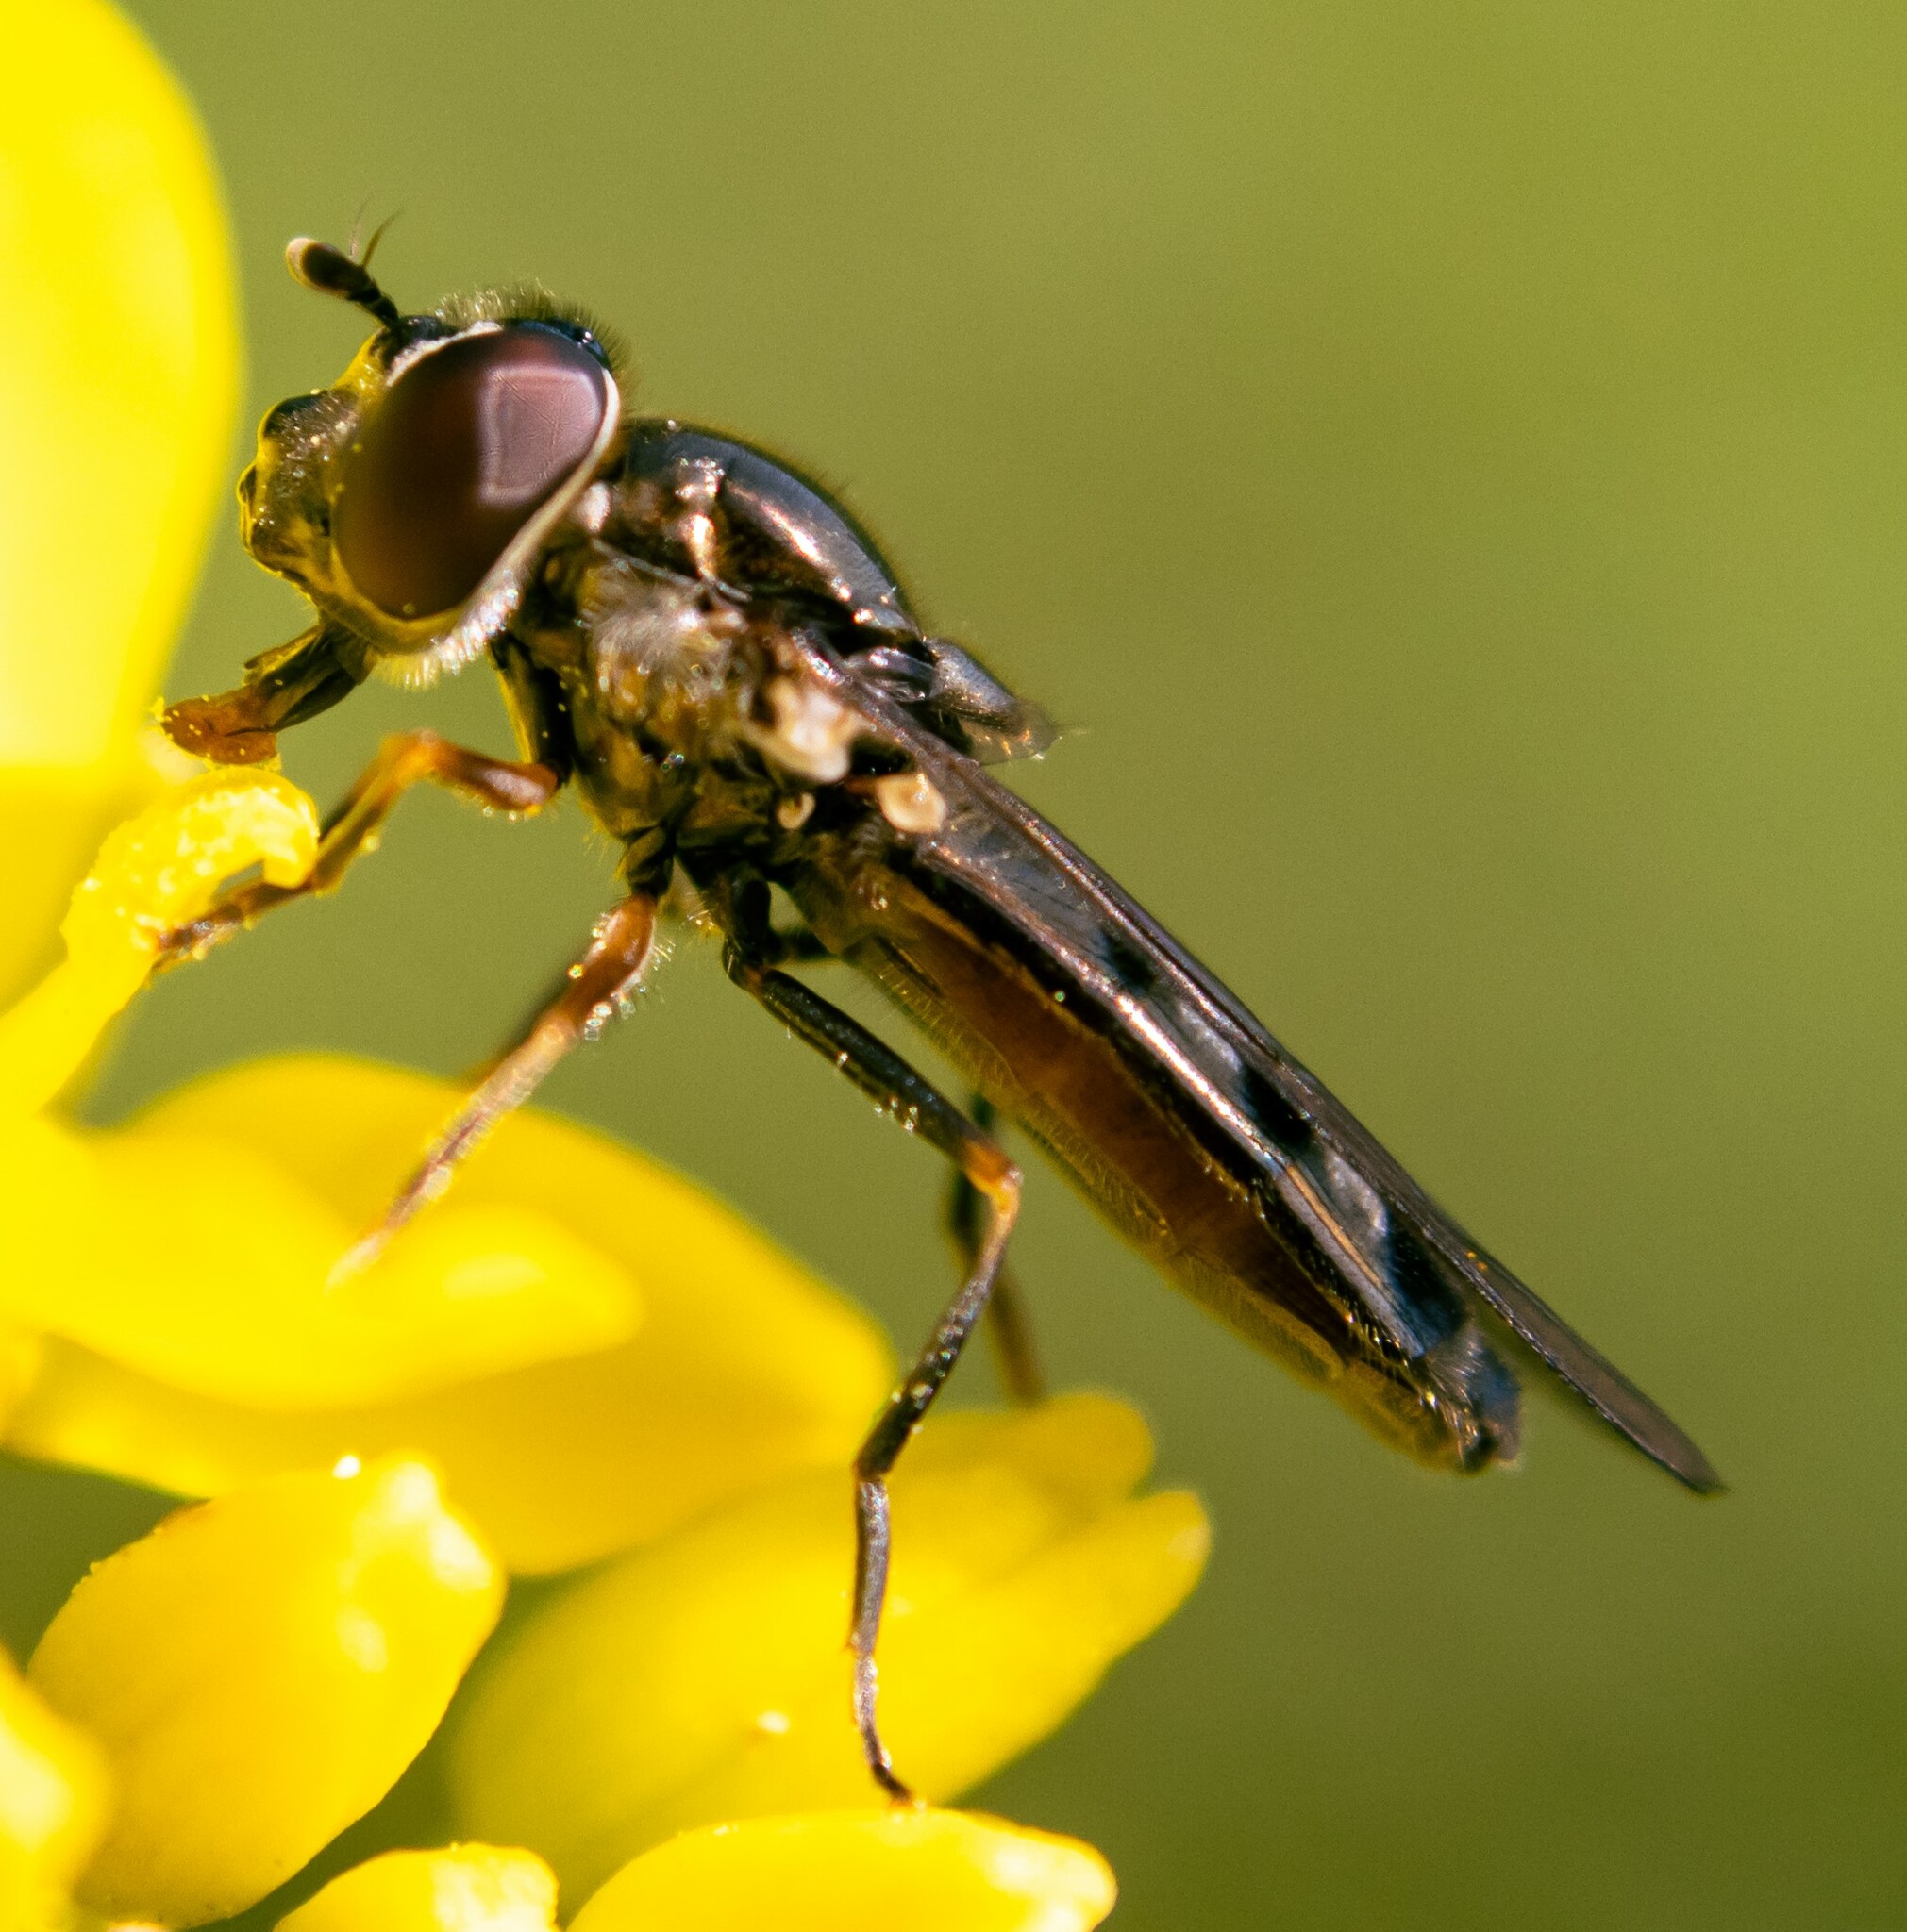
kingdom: Animalia
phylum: Arthropoda
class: Insecta
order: Diptera
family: Syrphidae
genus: Platycheirus
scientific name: Platycheirus albimanus
